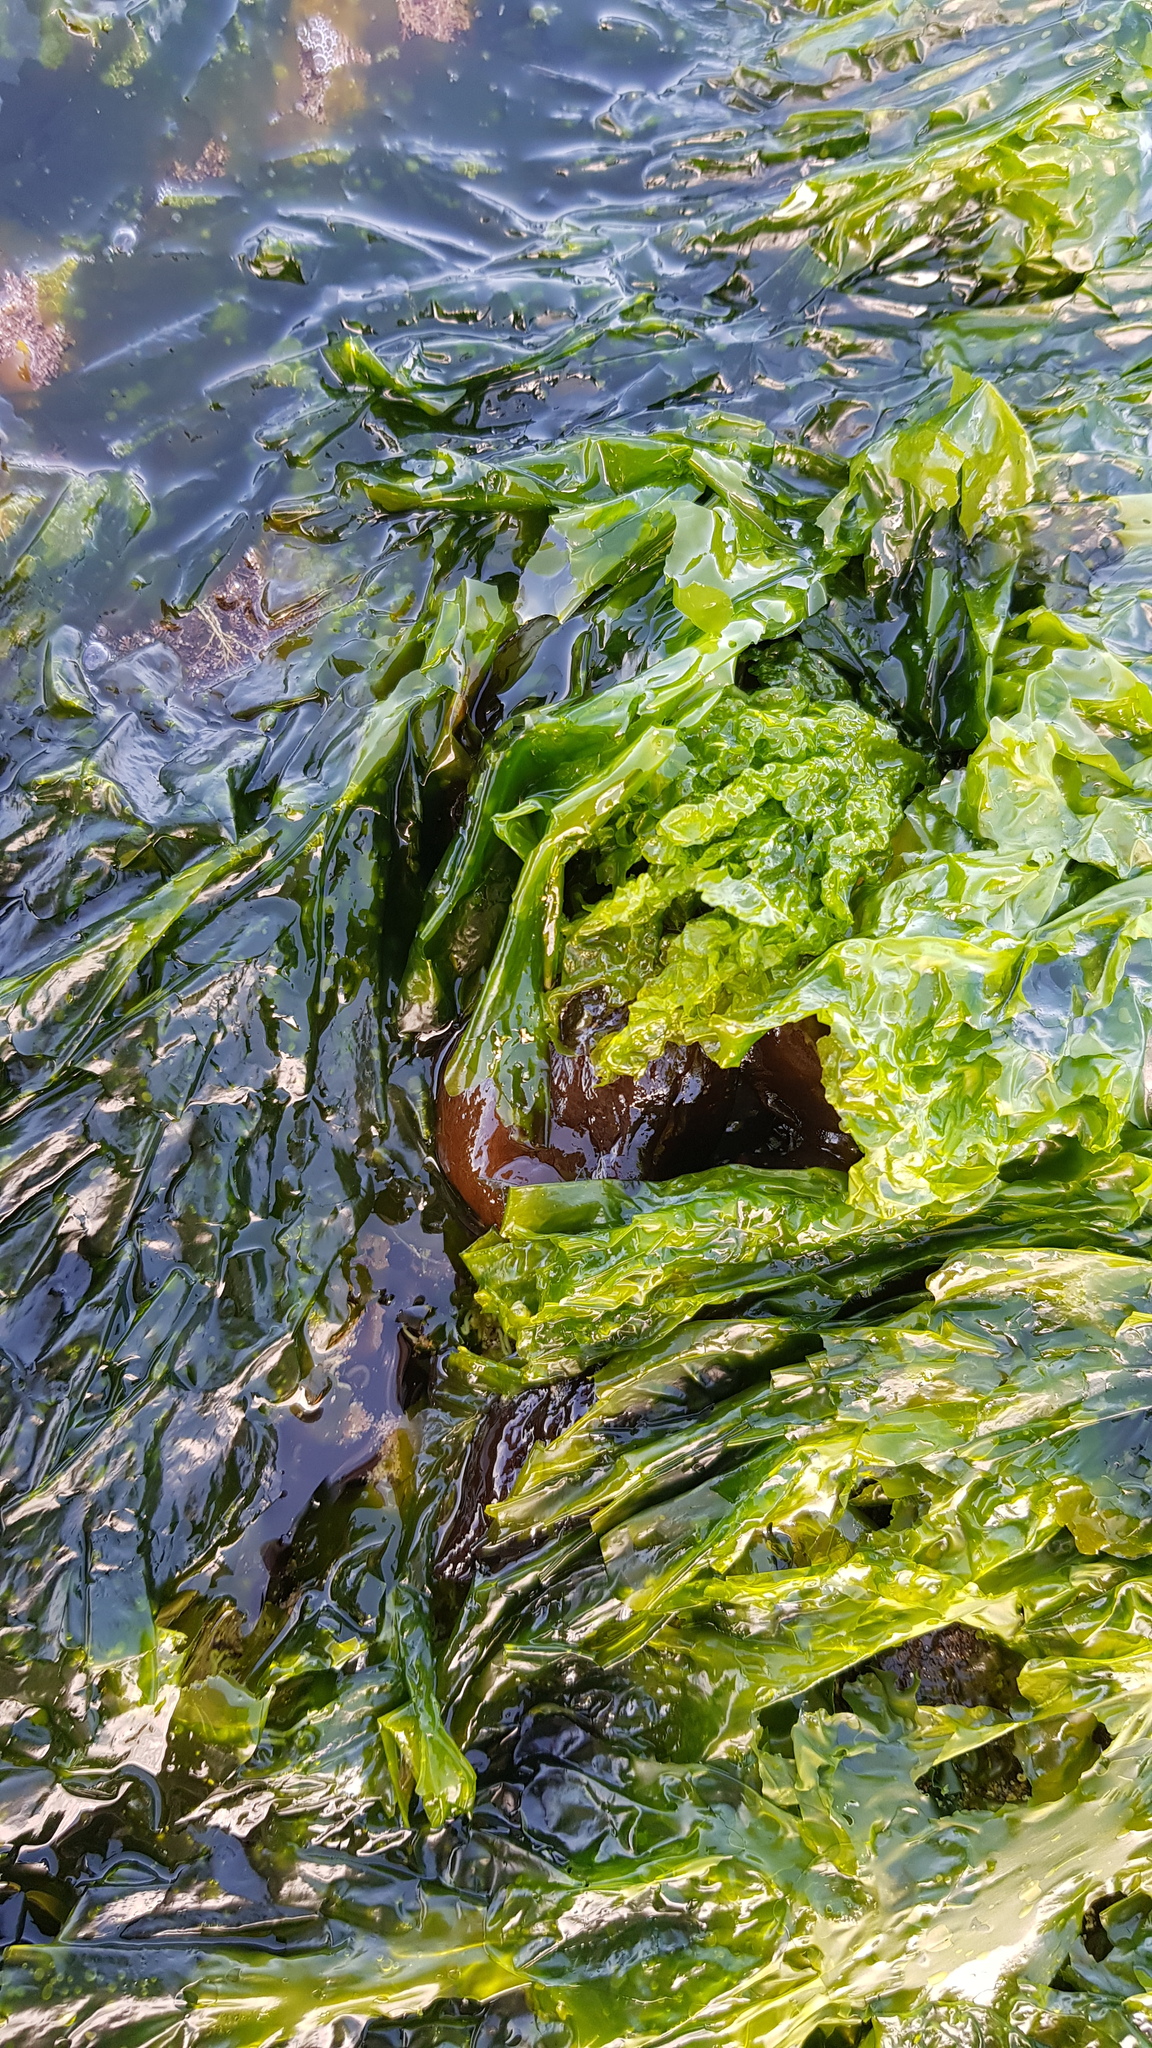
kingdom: Animalia
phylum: Mollusca
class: Gastropoda
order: Aplysiida
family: Aplysiidae
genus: Aplysia
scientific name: Aplysia juliana
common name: Walking sea hare
